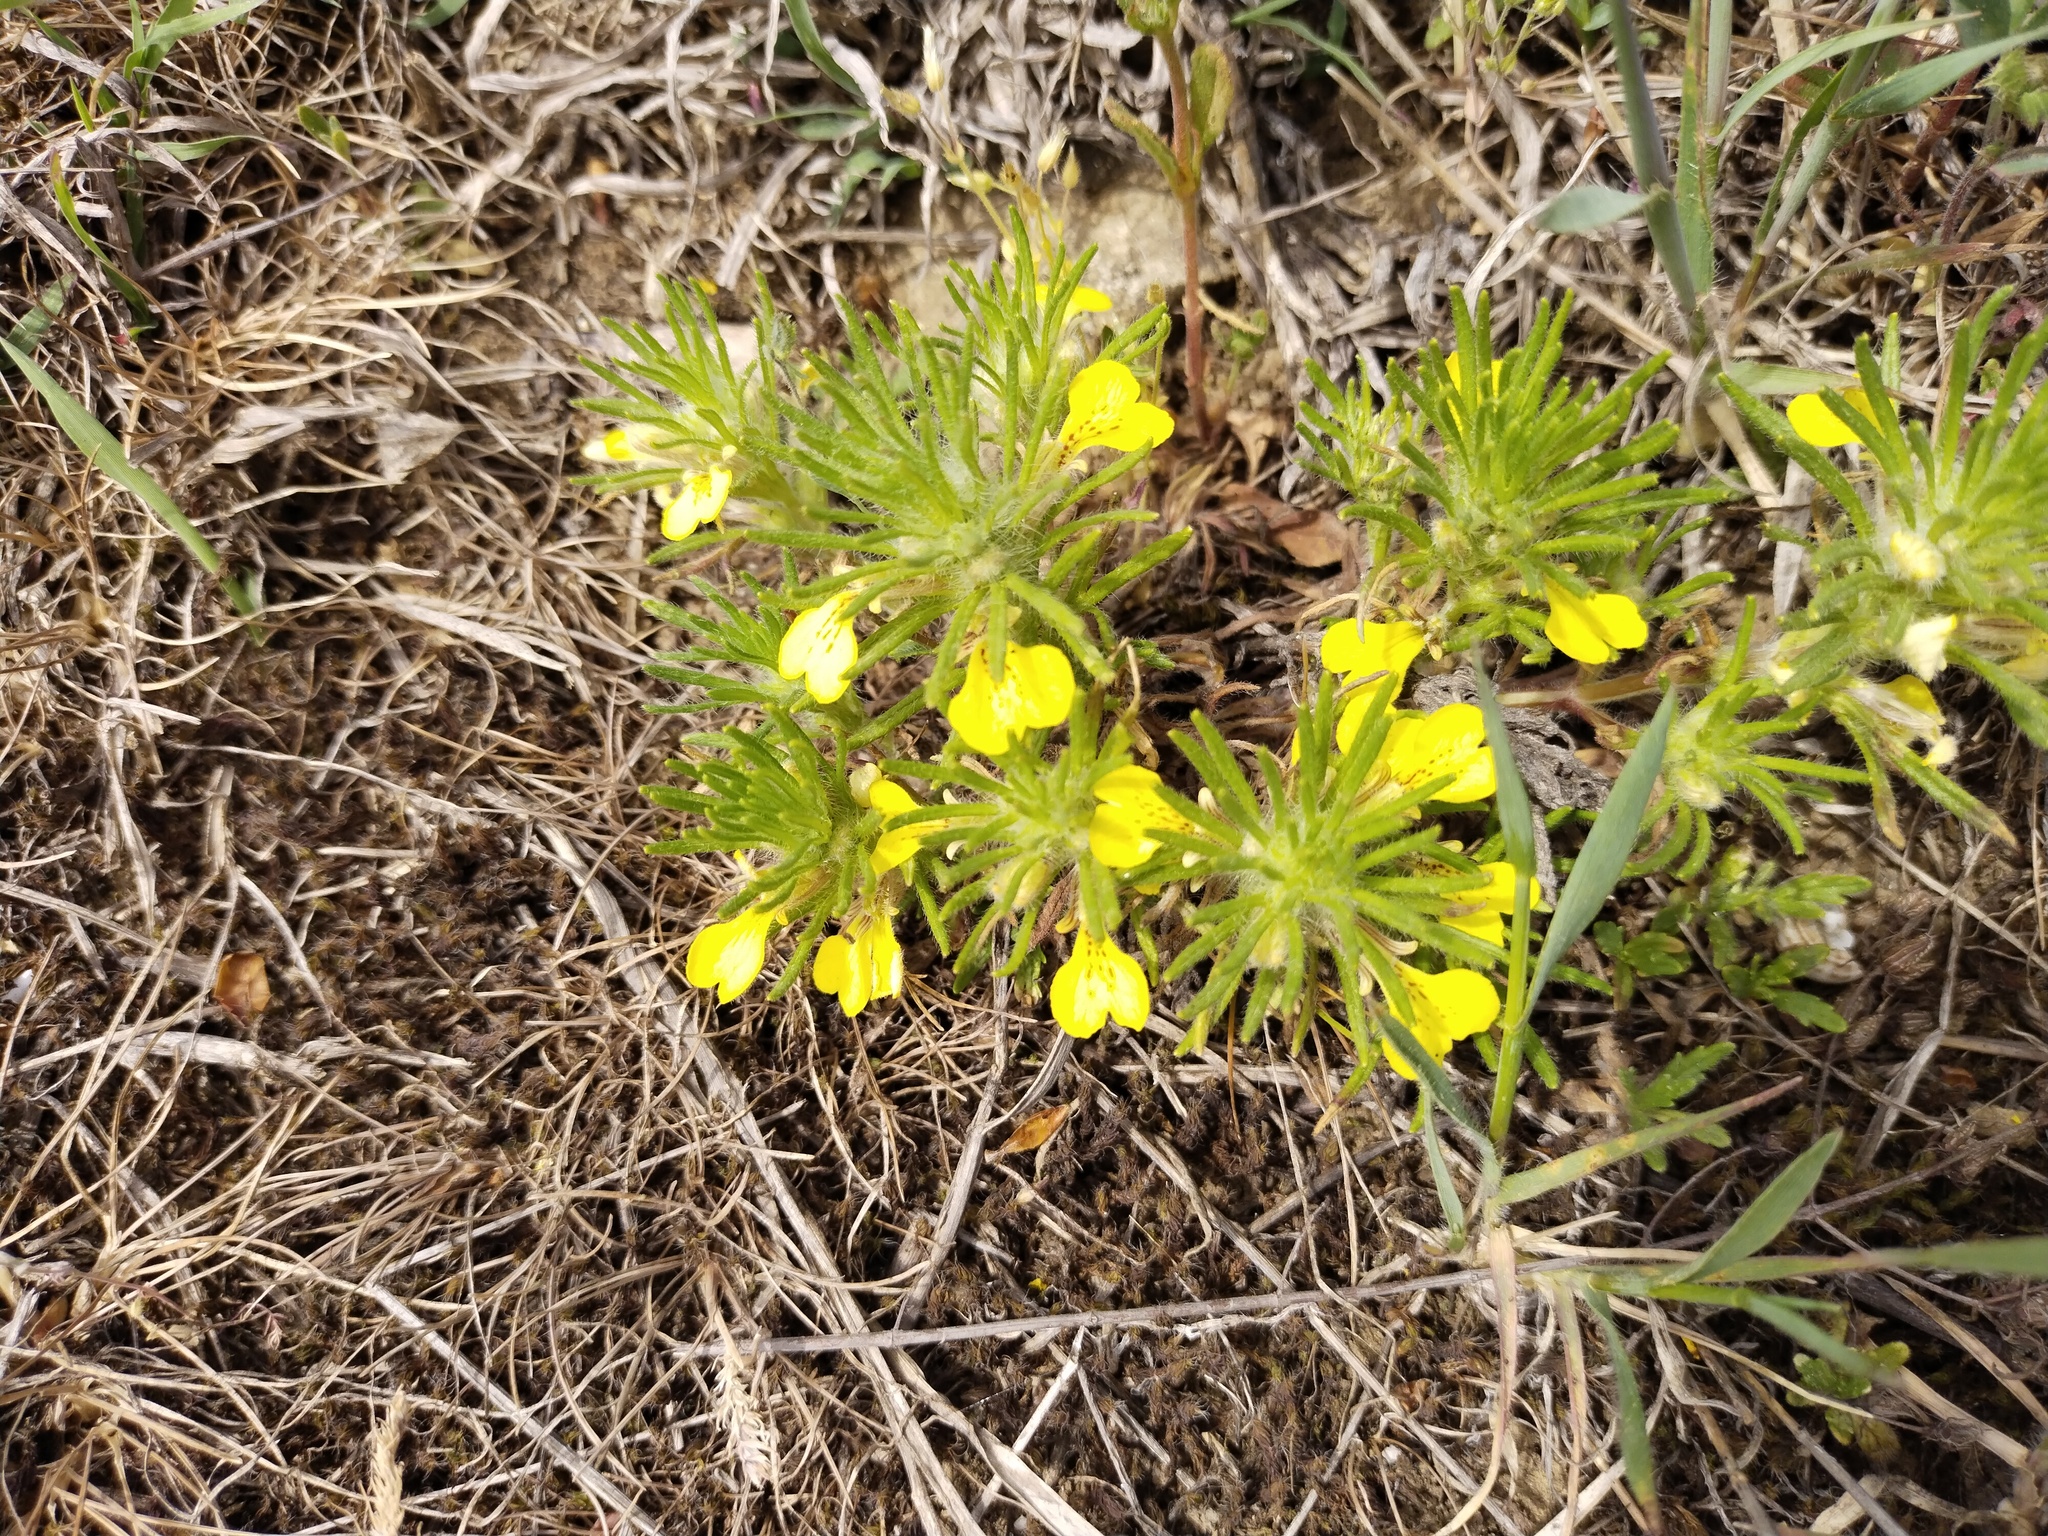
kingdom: Plantae
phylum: Tracheophyta
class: Magnoliopsida
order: Lamiales
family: Lamiaceae
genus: Ajuga
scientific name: Ajuga chamaepitys
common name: Ground-pine
